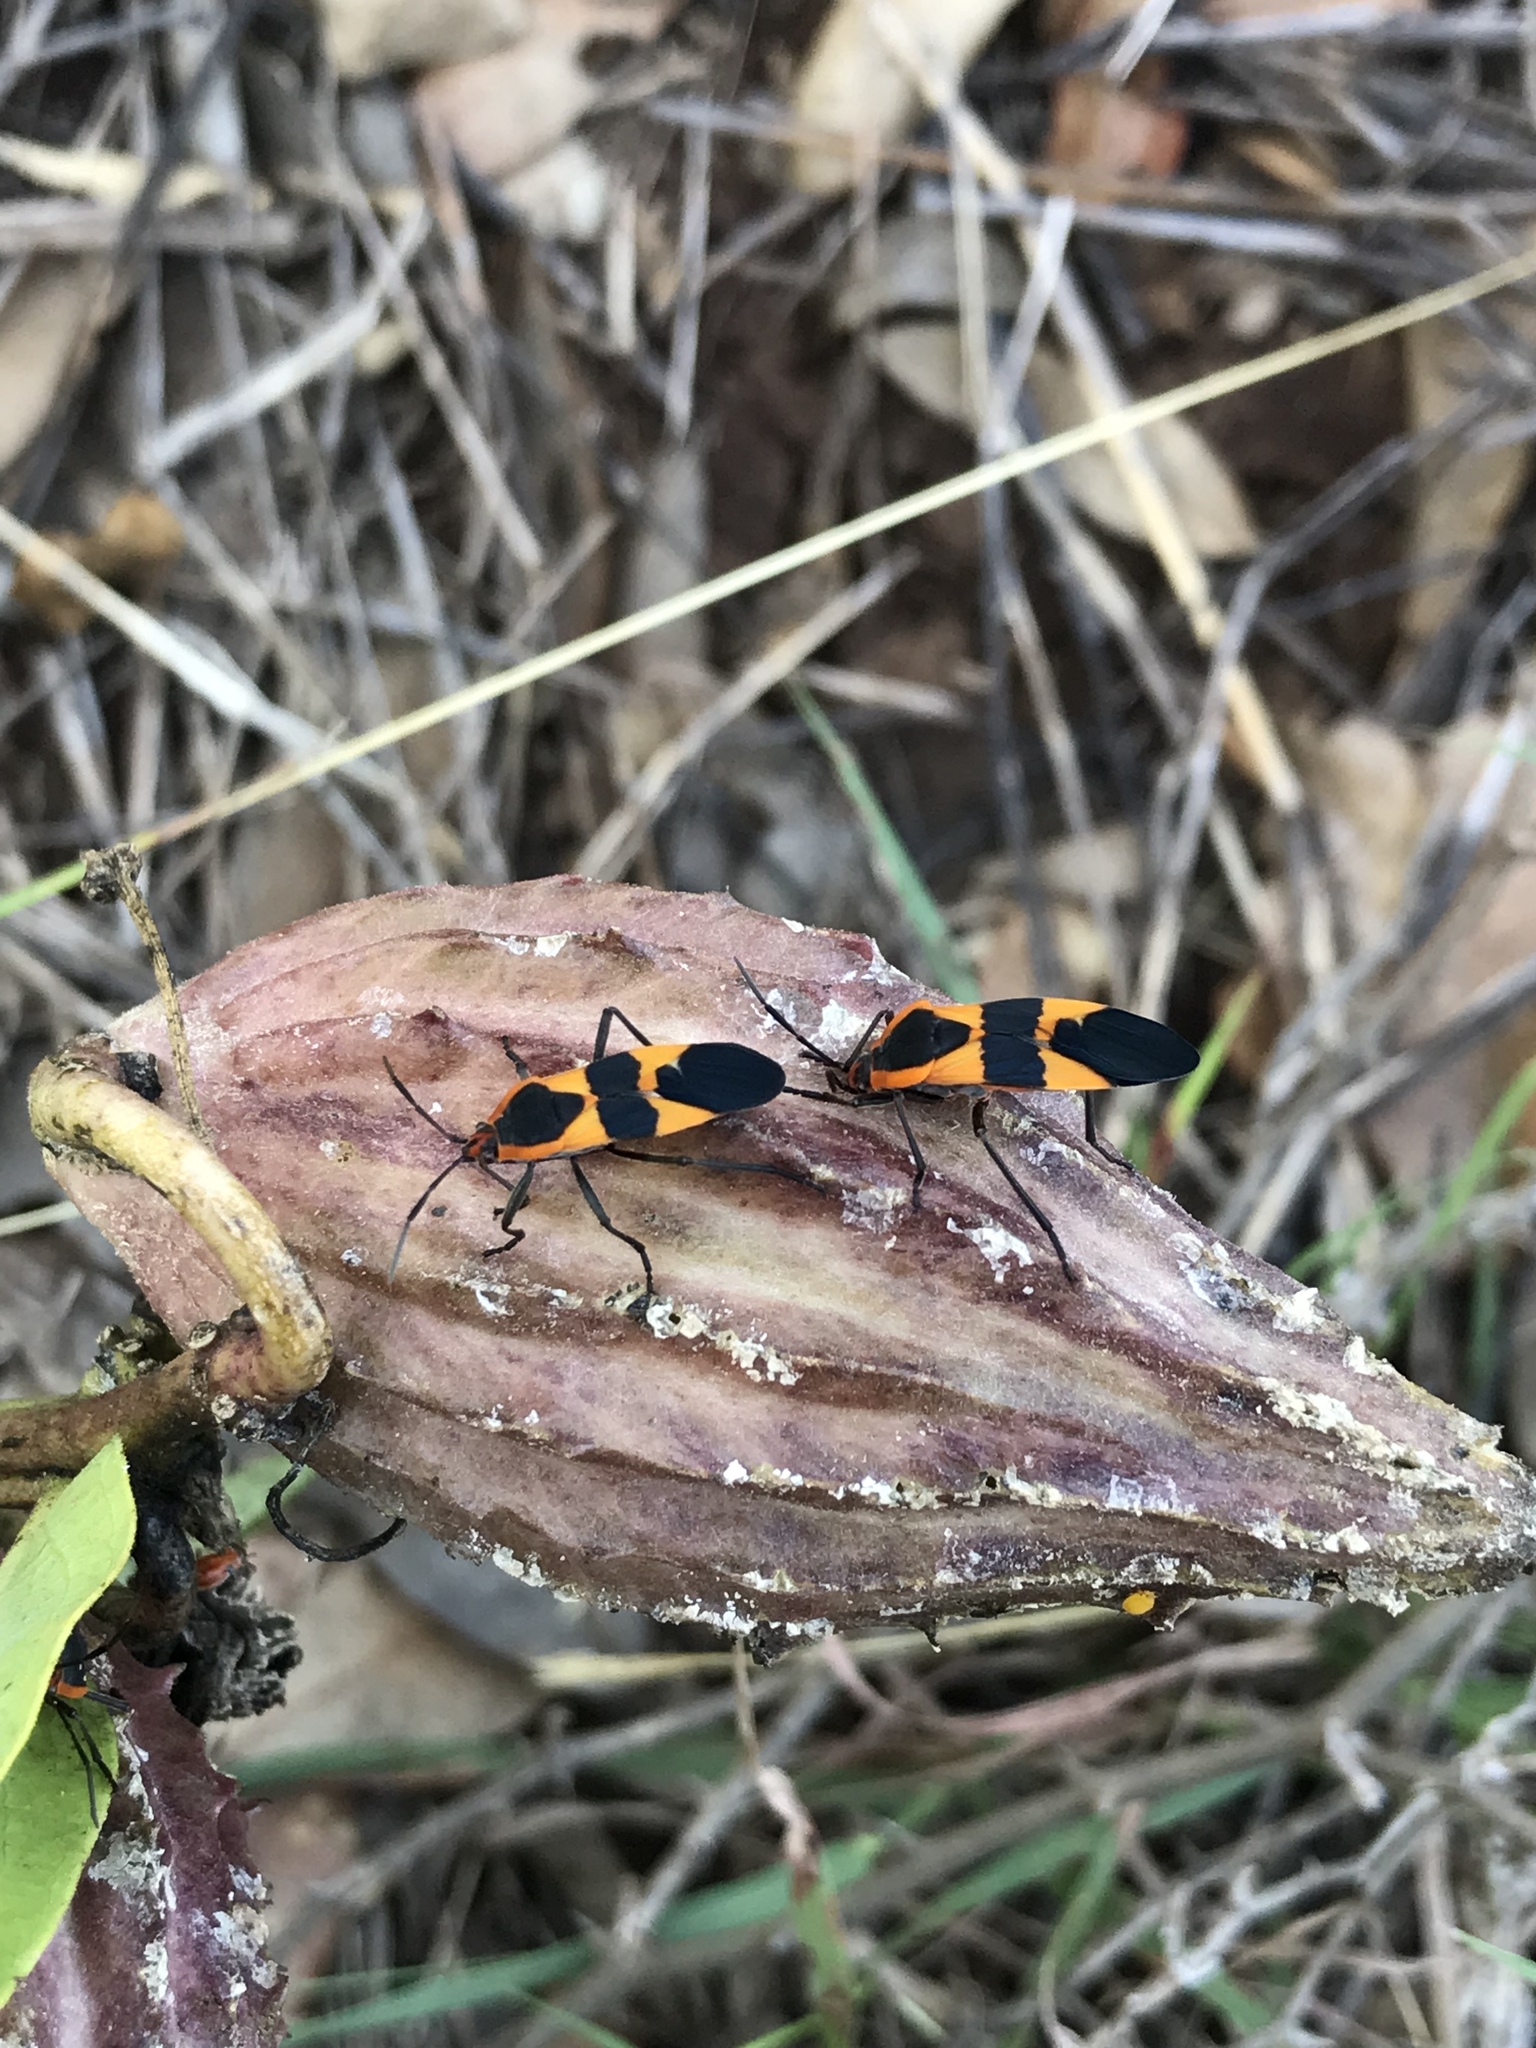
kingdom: Animalia
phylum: Arthropoda
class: Insecta
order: Hemiptera
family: Lygaeidae
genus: Oncopeltus
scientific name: Oncopeltus fasciatus
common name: Large milkweed bug
